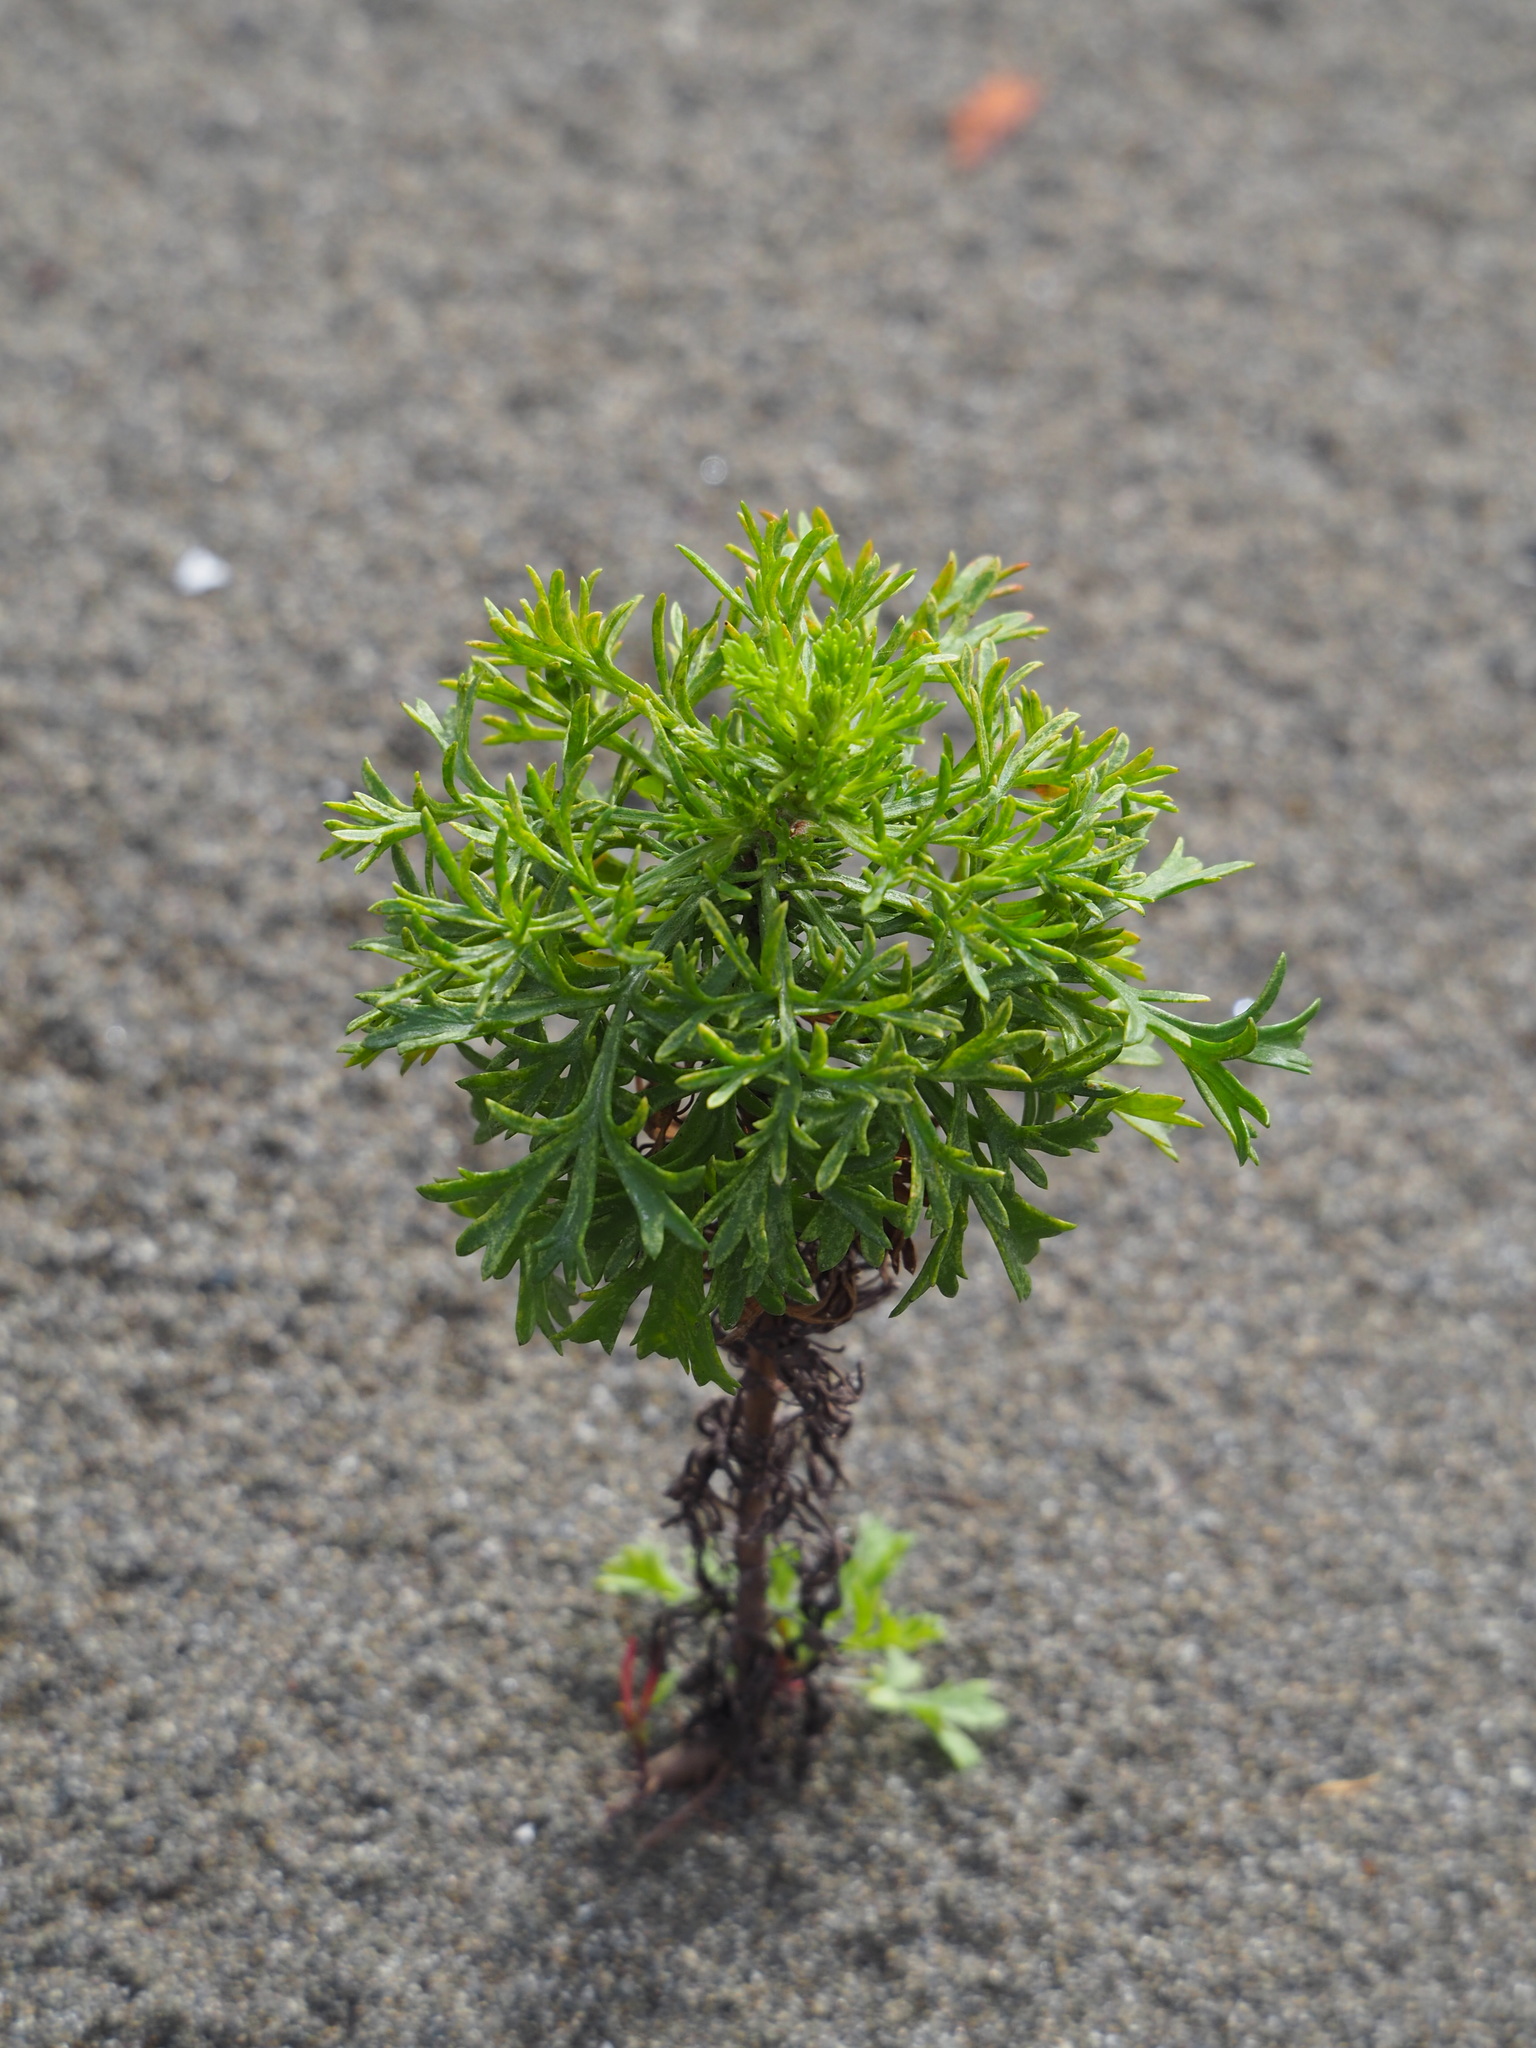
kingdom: Plantae
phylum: Tracheophyta
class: Magnoliopsida
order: Asterales
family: Asteraceae
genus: Artemisia
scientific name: Artemisia capillaris
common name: Yin-chen wormwood
